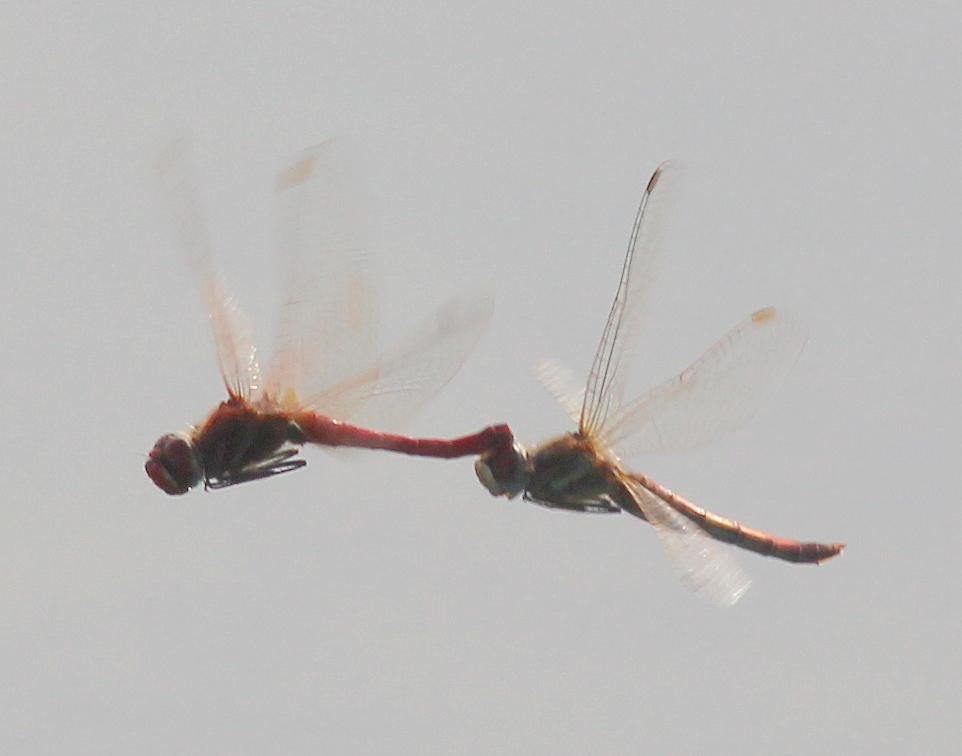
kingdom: Animalia
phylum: Arthropoda
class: Insecta
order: Odonata
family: Libellulidae
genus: Sympetrum
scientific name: Sympetrum fonscolombii
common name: Red-veined darter
